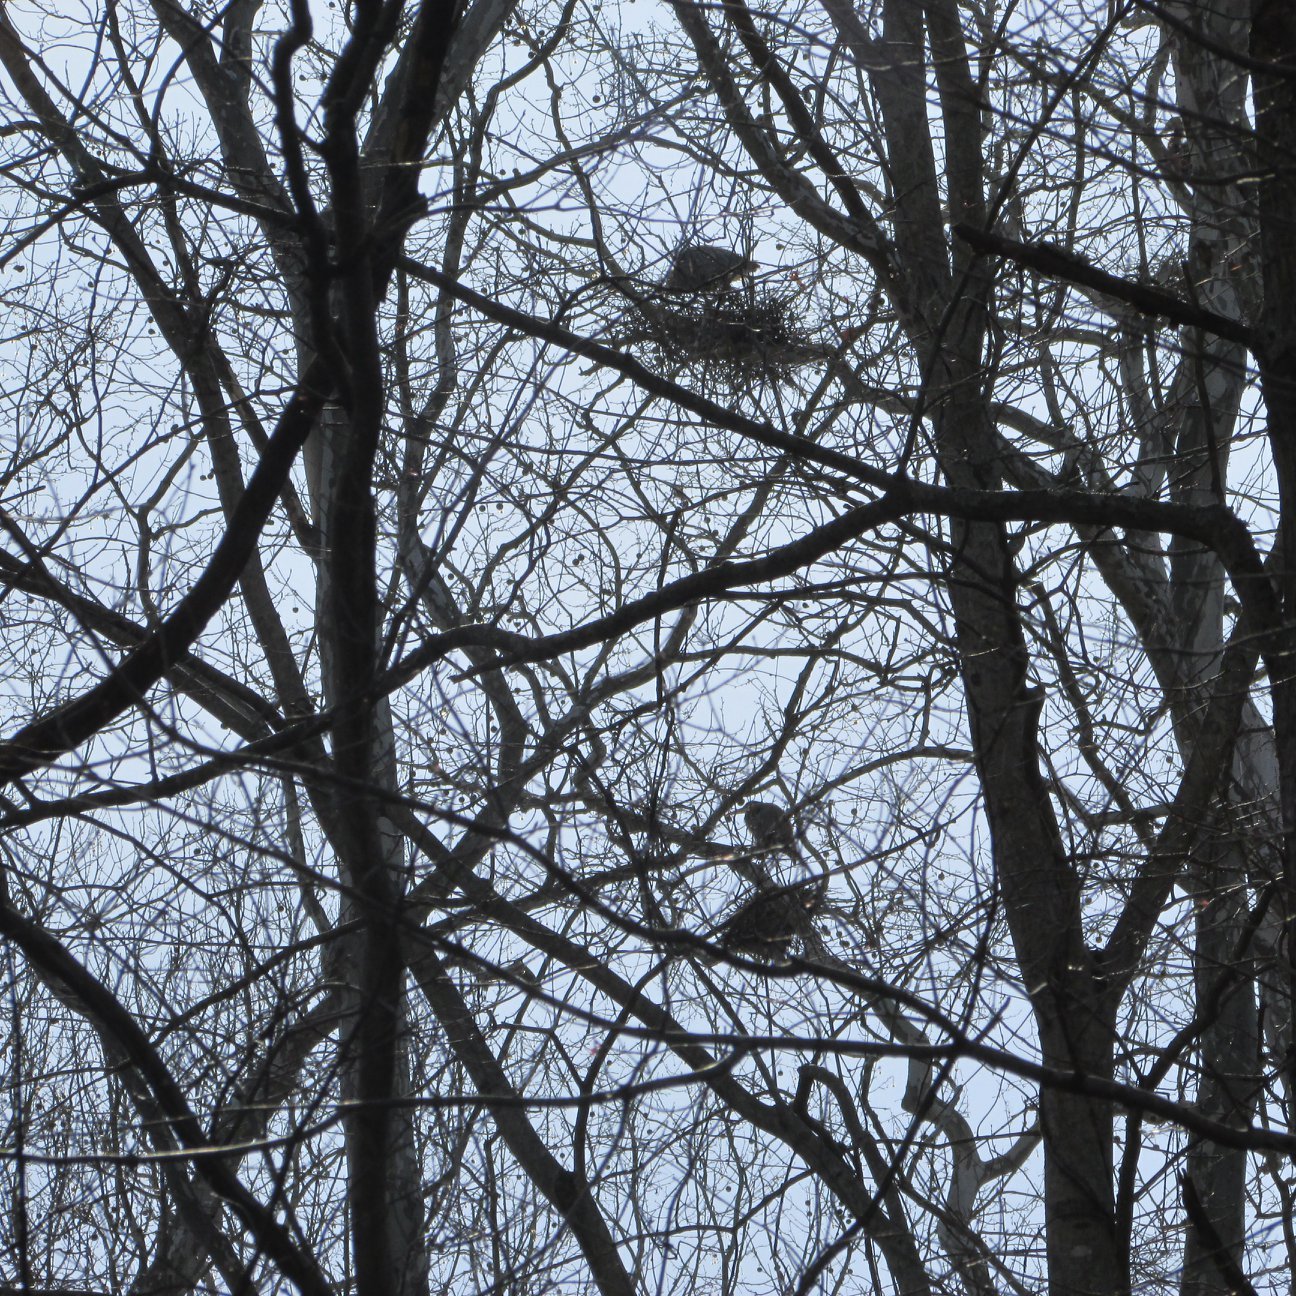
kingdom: Animalia
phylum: Chordata
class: Aves
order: Pelecaniformes
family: Ardeidae
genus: Ardea
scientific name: Ardea herodias
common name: Great blue heron
